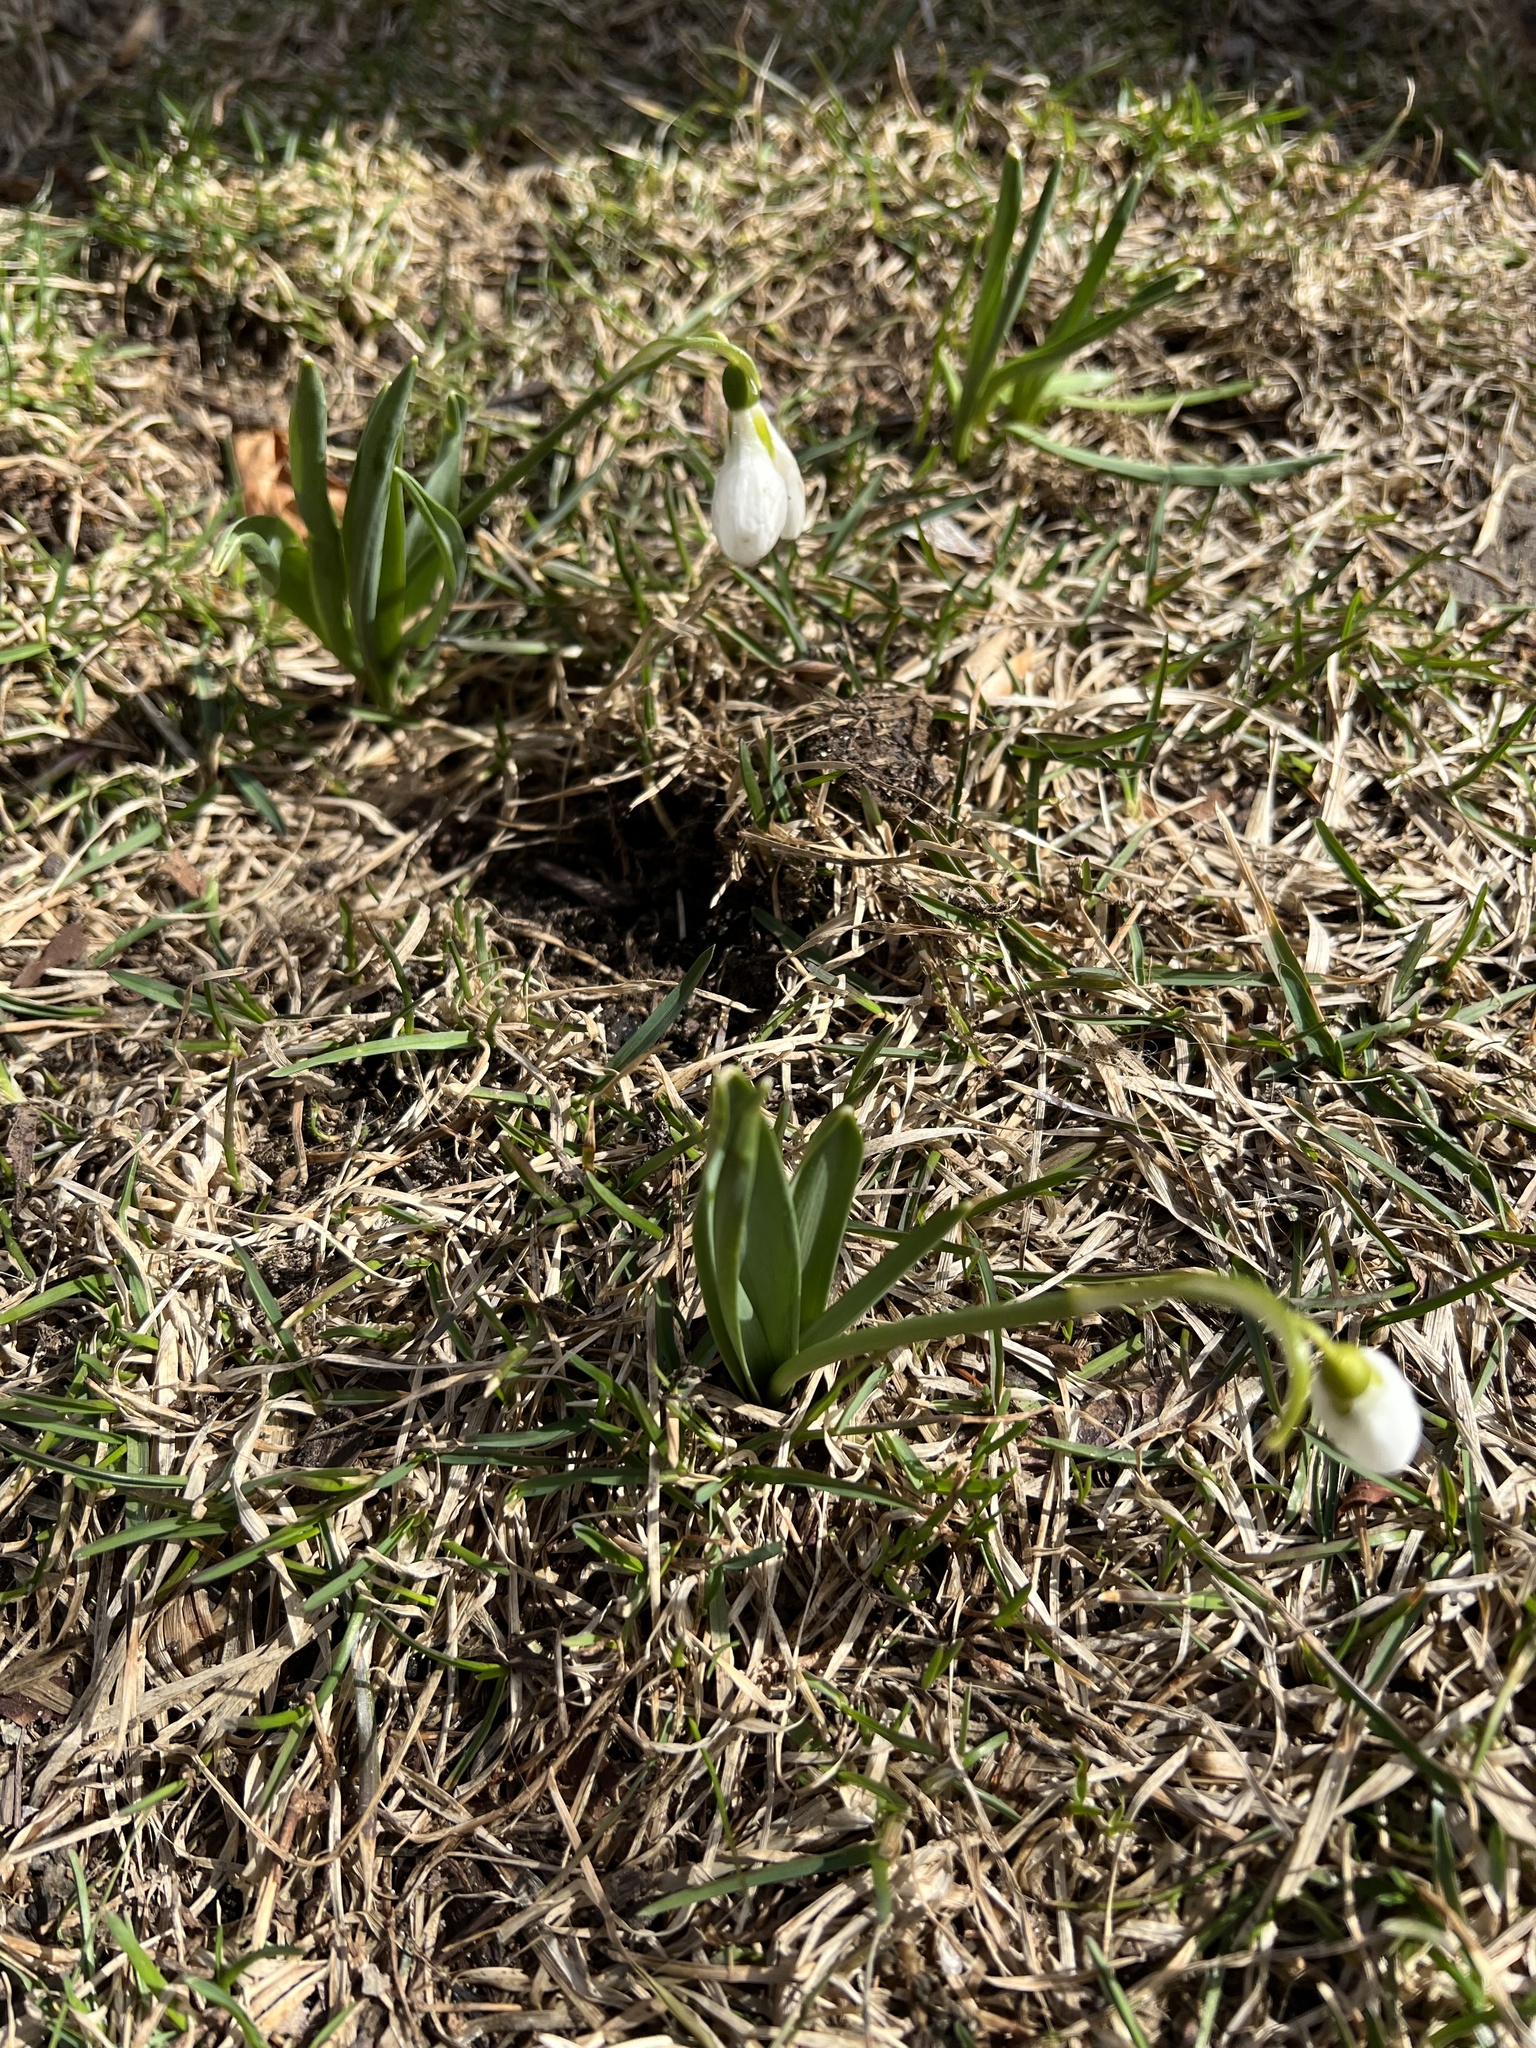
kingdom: Plantae
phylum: Tracheophyta
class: Liliopsida
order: Asparagales
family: Amaryllidaceae
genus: Galanthus
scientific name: Galanthus elwesii
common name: Greater snowdrop
